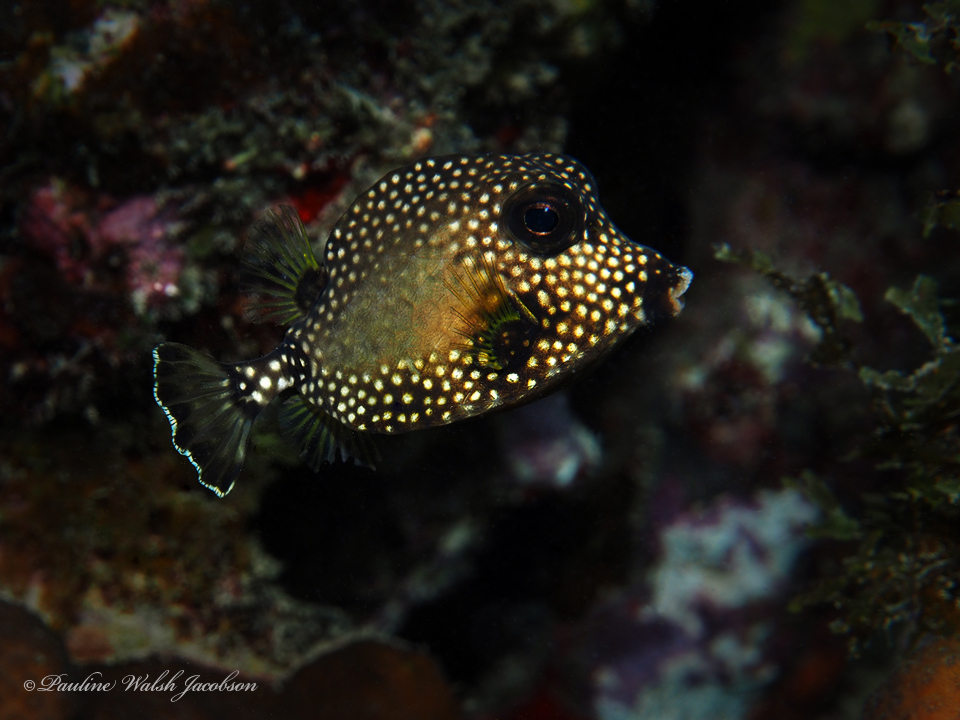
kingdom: Animalia
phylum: Chordata
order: Tetraodontiformes
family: Ostraciidae
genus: Lactophrys
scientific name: Lactophrys triqueter
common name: Smooth trunkfish
